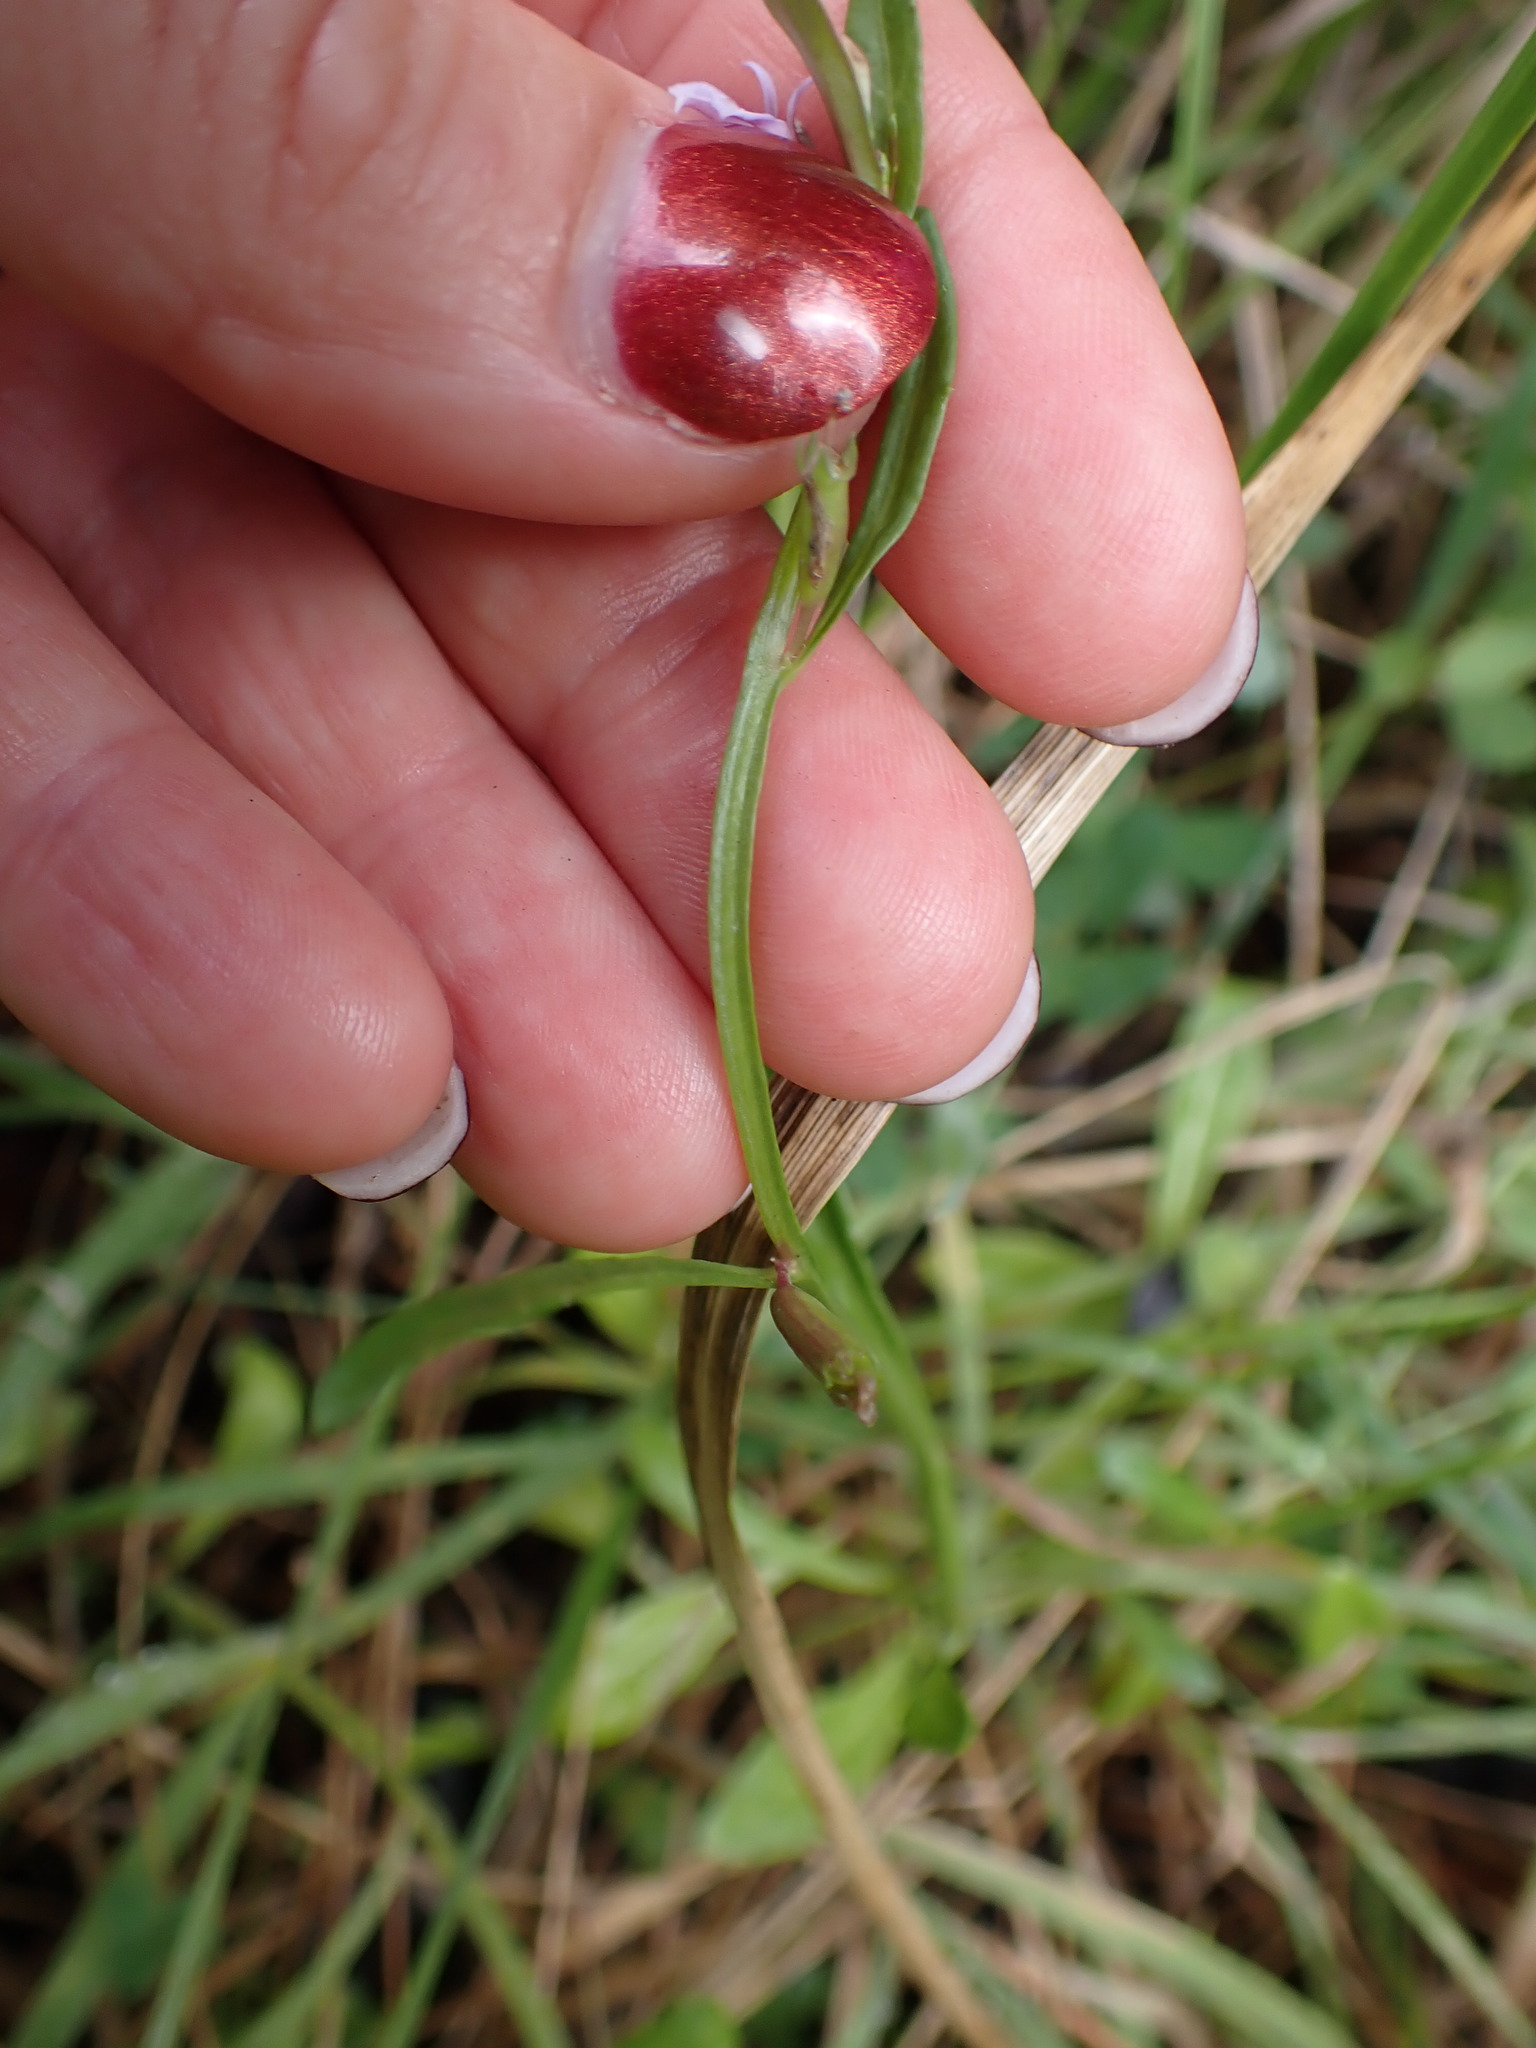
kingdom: Plantae
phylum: Tracheophyta
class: Magnoliopsida
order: Asterales
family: Campanulaceae
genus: Lobelia
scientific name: Lobelia anceps
